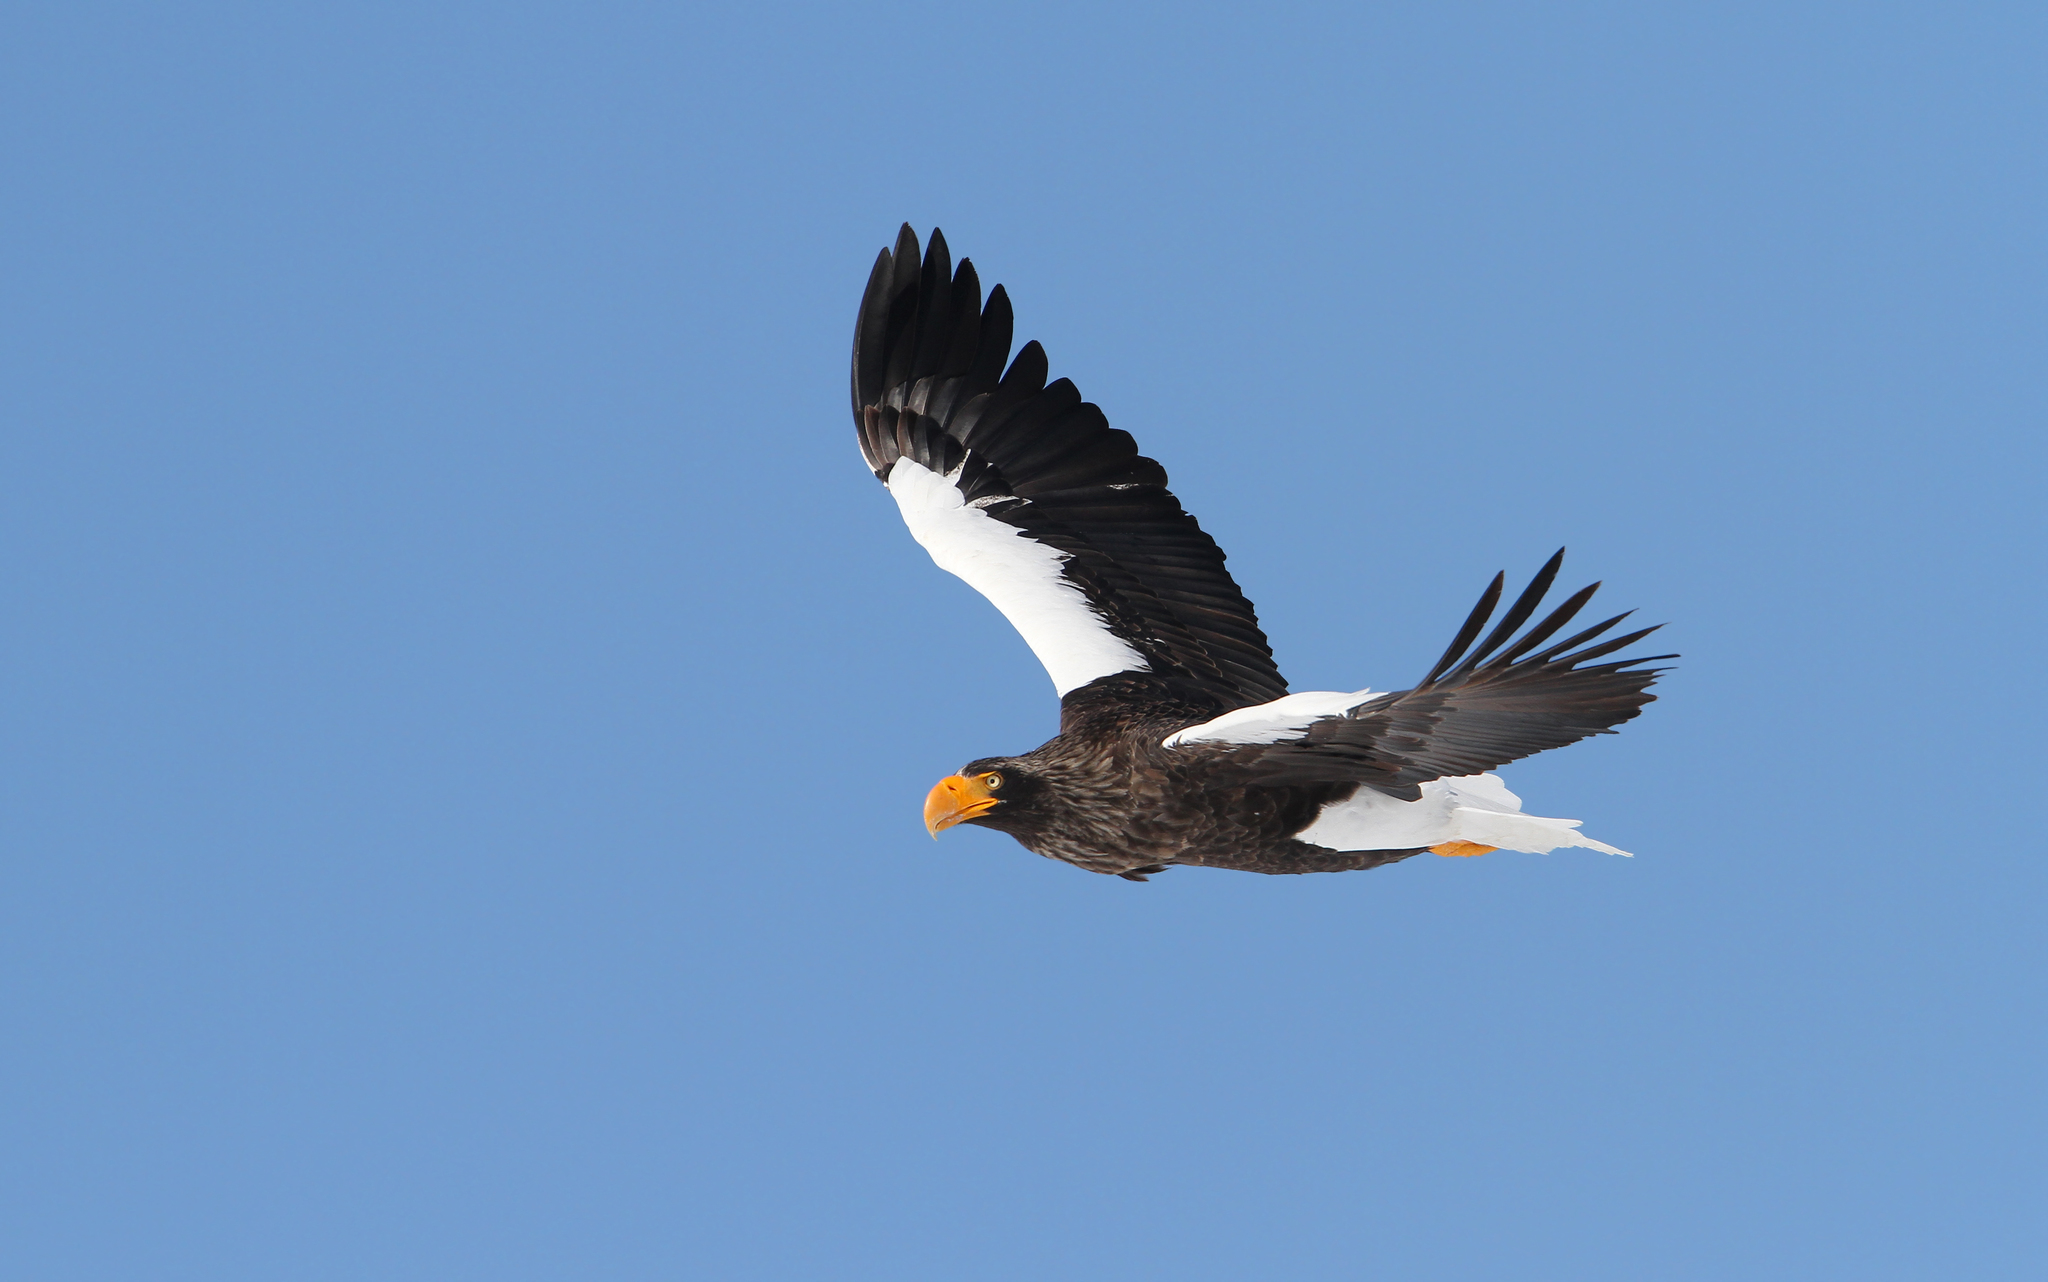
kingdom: Animalia
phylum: Chordata
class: Aves
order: Accipitriformes
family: Accipitridae
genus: Haliaeetus
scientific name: Haliaeetus pelagicus
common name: Steller's sea eagle
